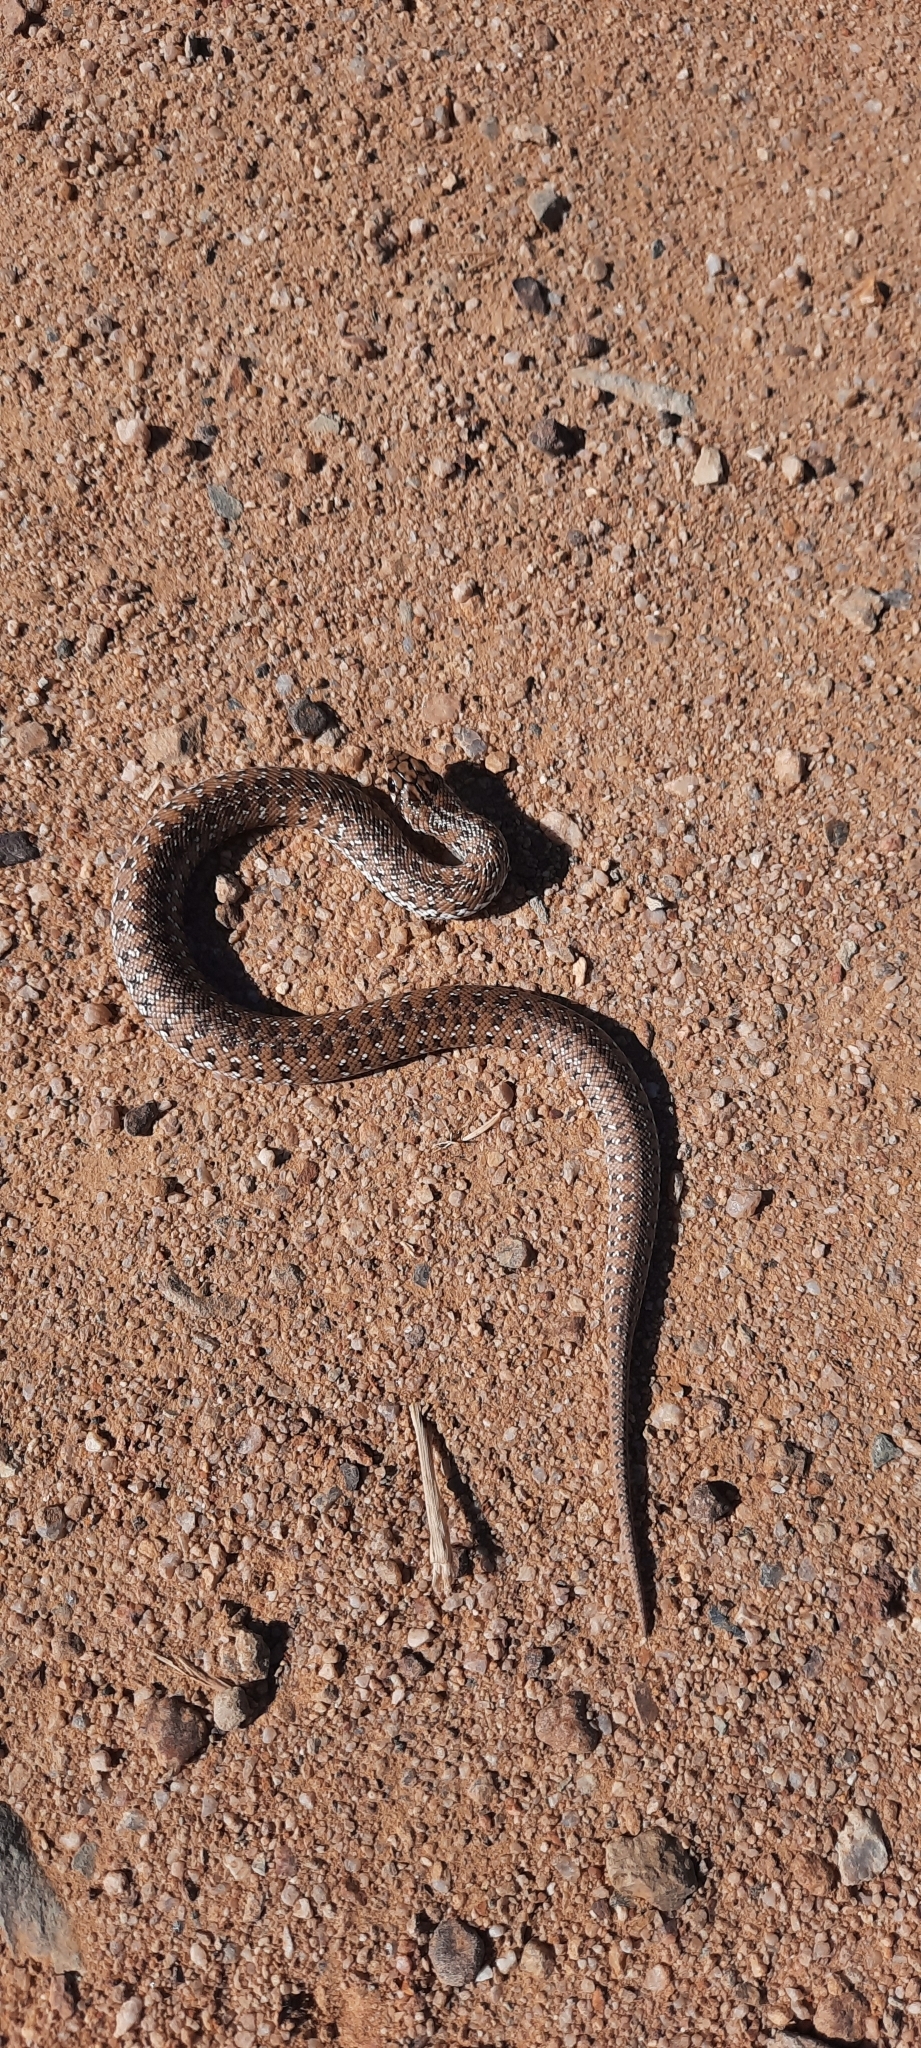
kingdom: Animalia
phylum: Chordata
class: Squamata
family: Pseudaspididae
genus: Pseudaspis
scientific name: Pseudaspis cana
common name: Mole snake
